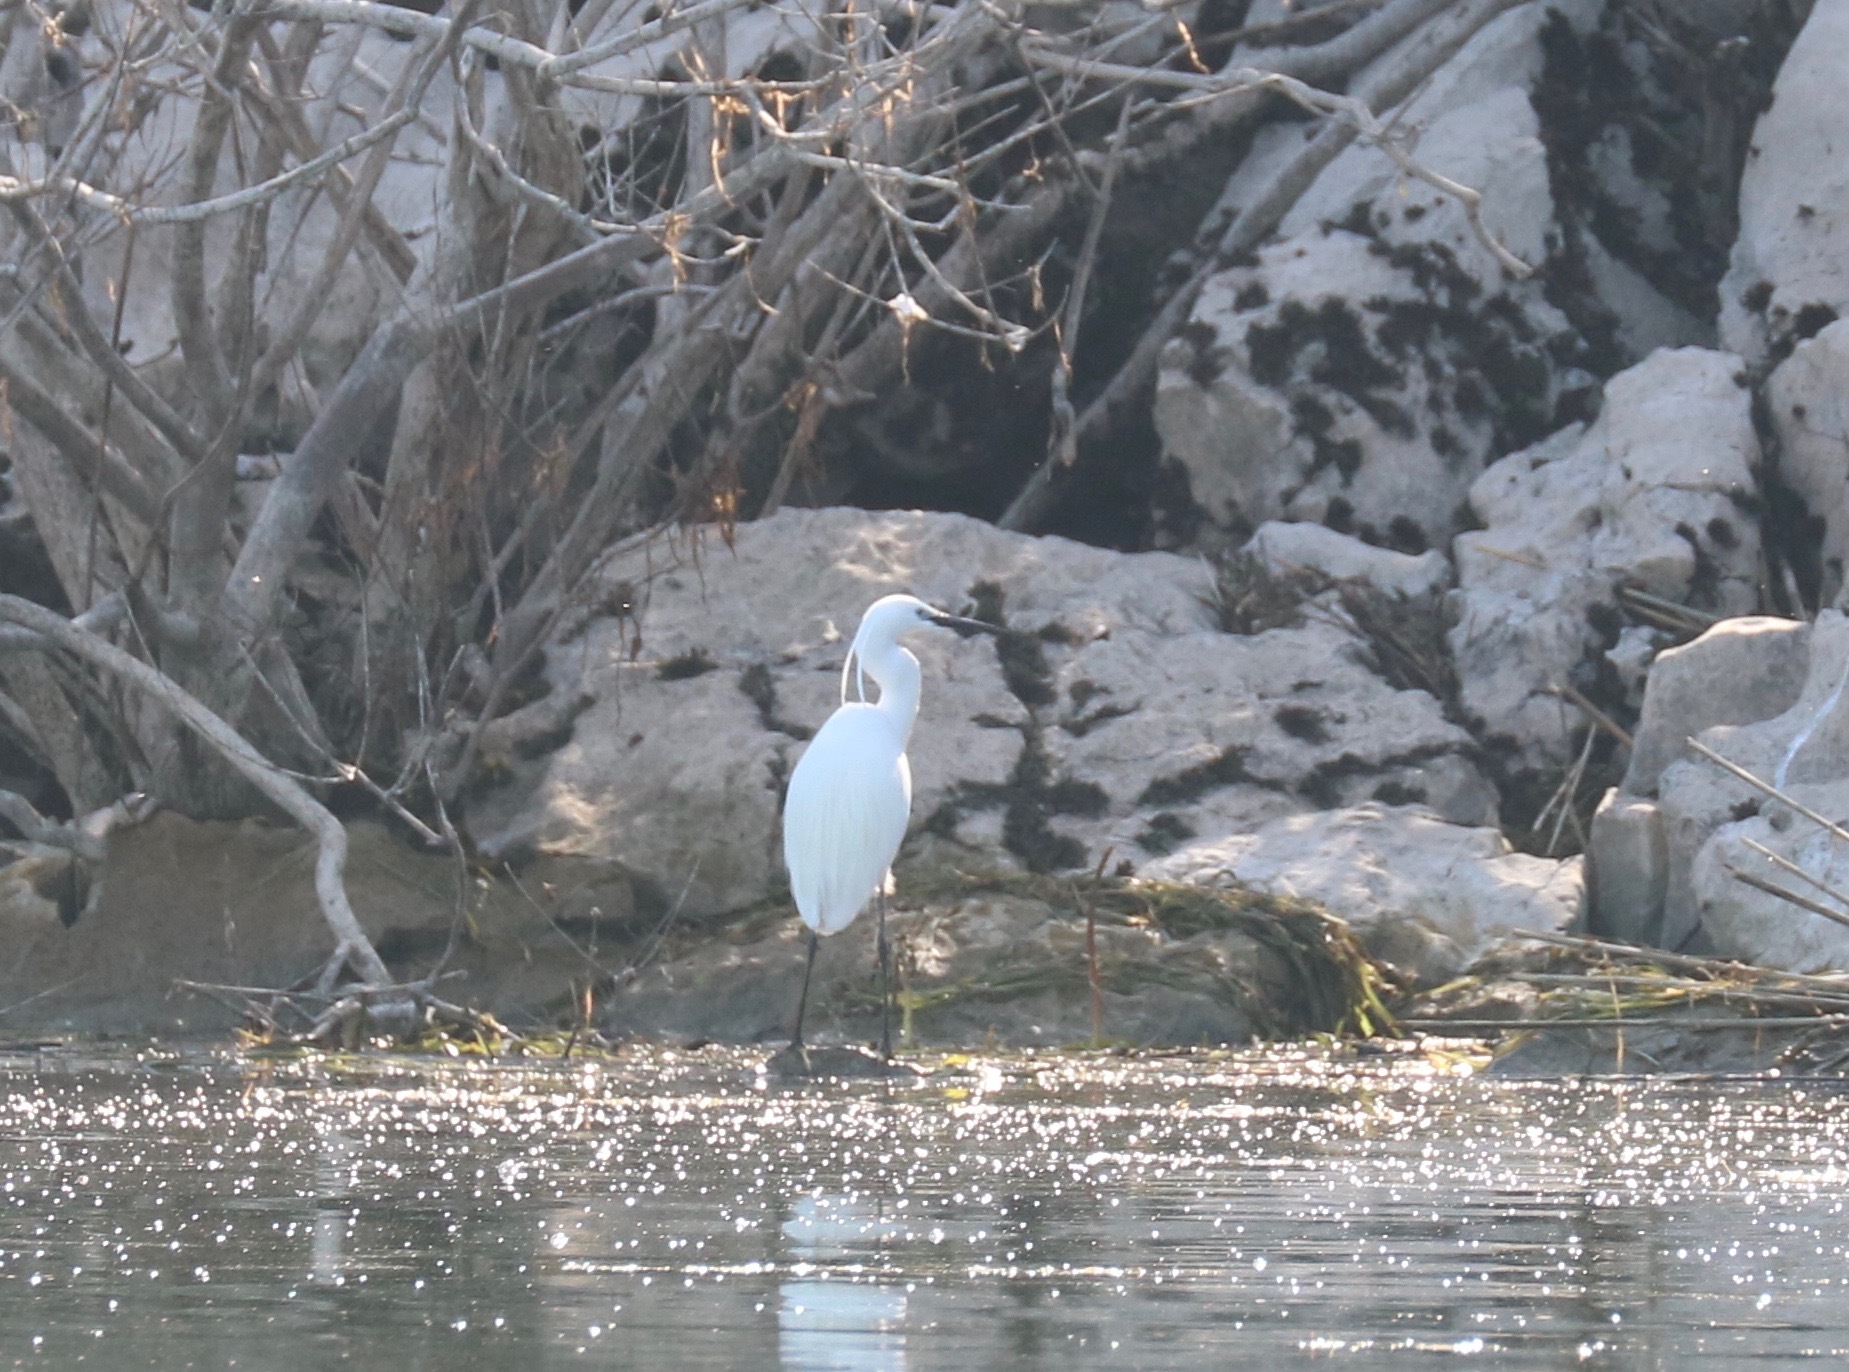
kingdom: Animalia
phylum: Chordata
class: Aves
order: Pelecaniformes
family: Ardeidae
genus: Egretta
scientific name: Egretta garzetta
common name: Little egret
